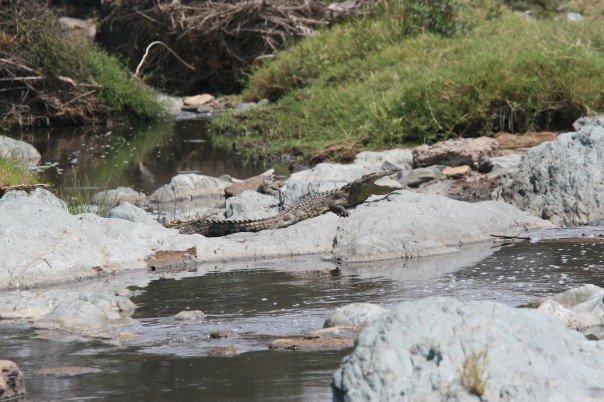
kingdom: Animalia
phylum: Chordata
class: Crocodylia
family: Crocodylidae
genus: Crocodylus
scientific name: Crocodylus niloticus
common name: Nile crocodile
